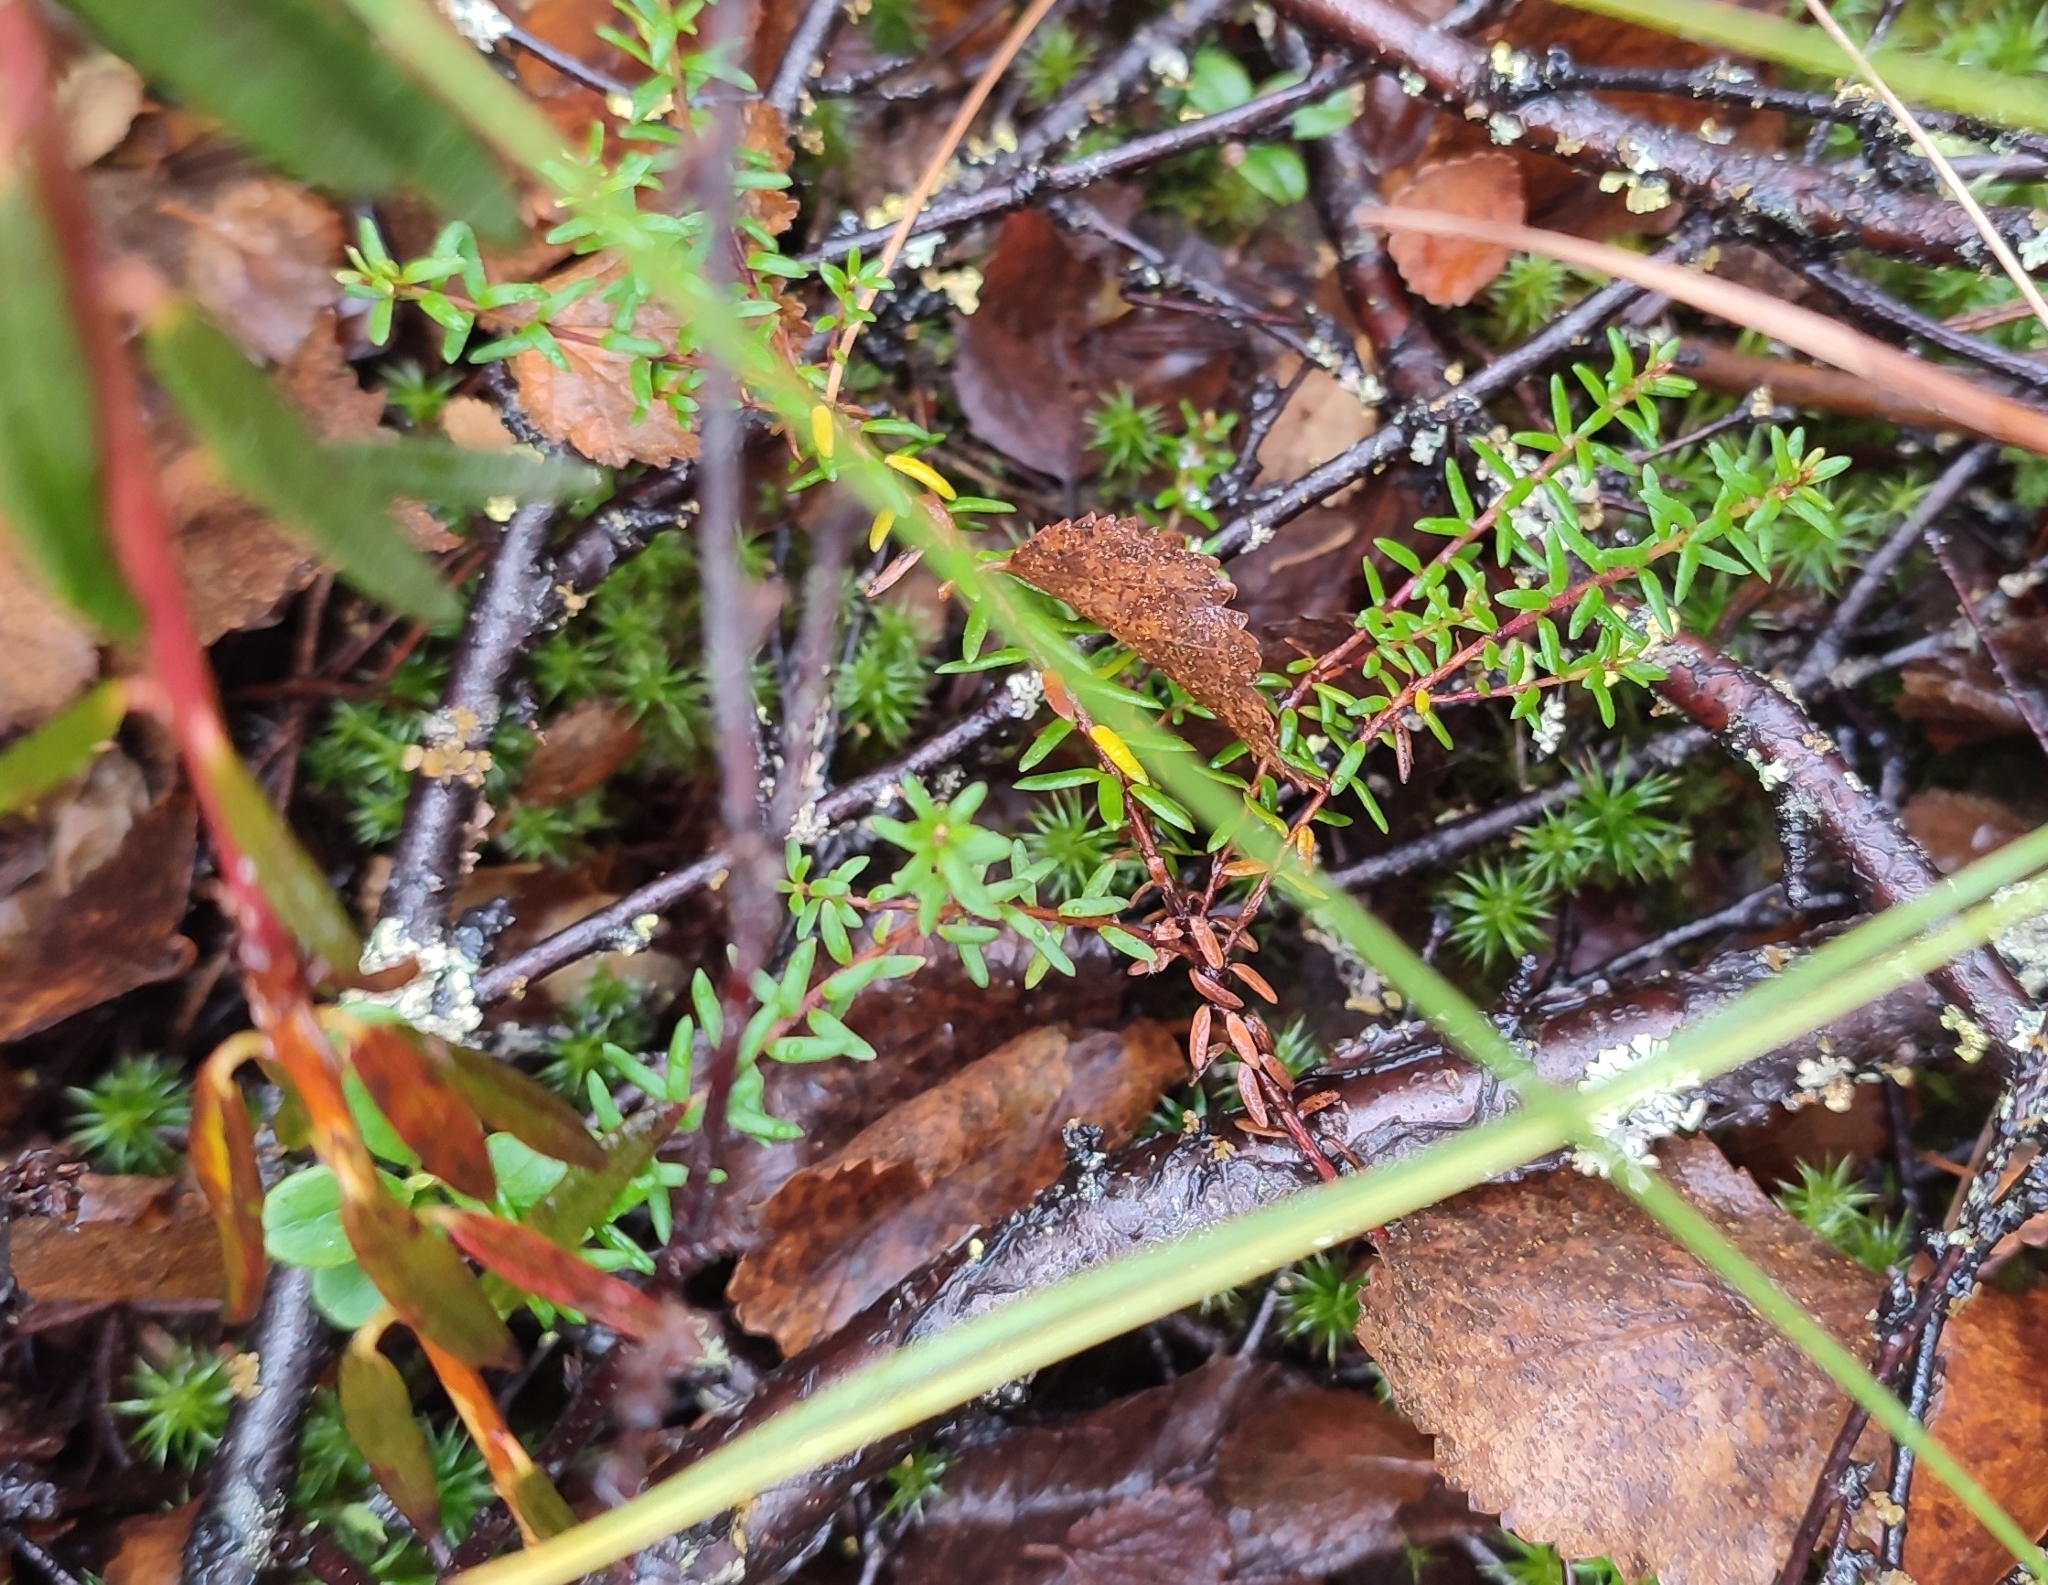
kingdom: Plantae
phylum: Tracheophyta
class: Magnoliopsida
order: Ericales
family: Ericaceae
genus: Empetrum
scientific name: Empetrum nigrum
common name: Black crowberry
